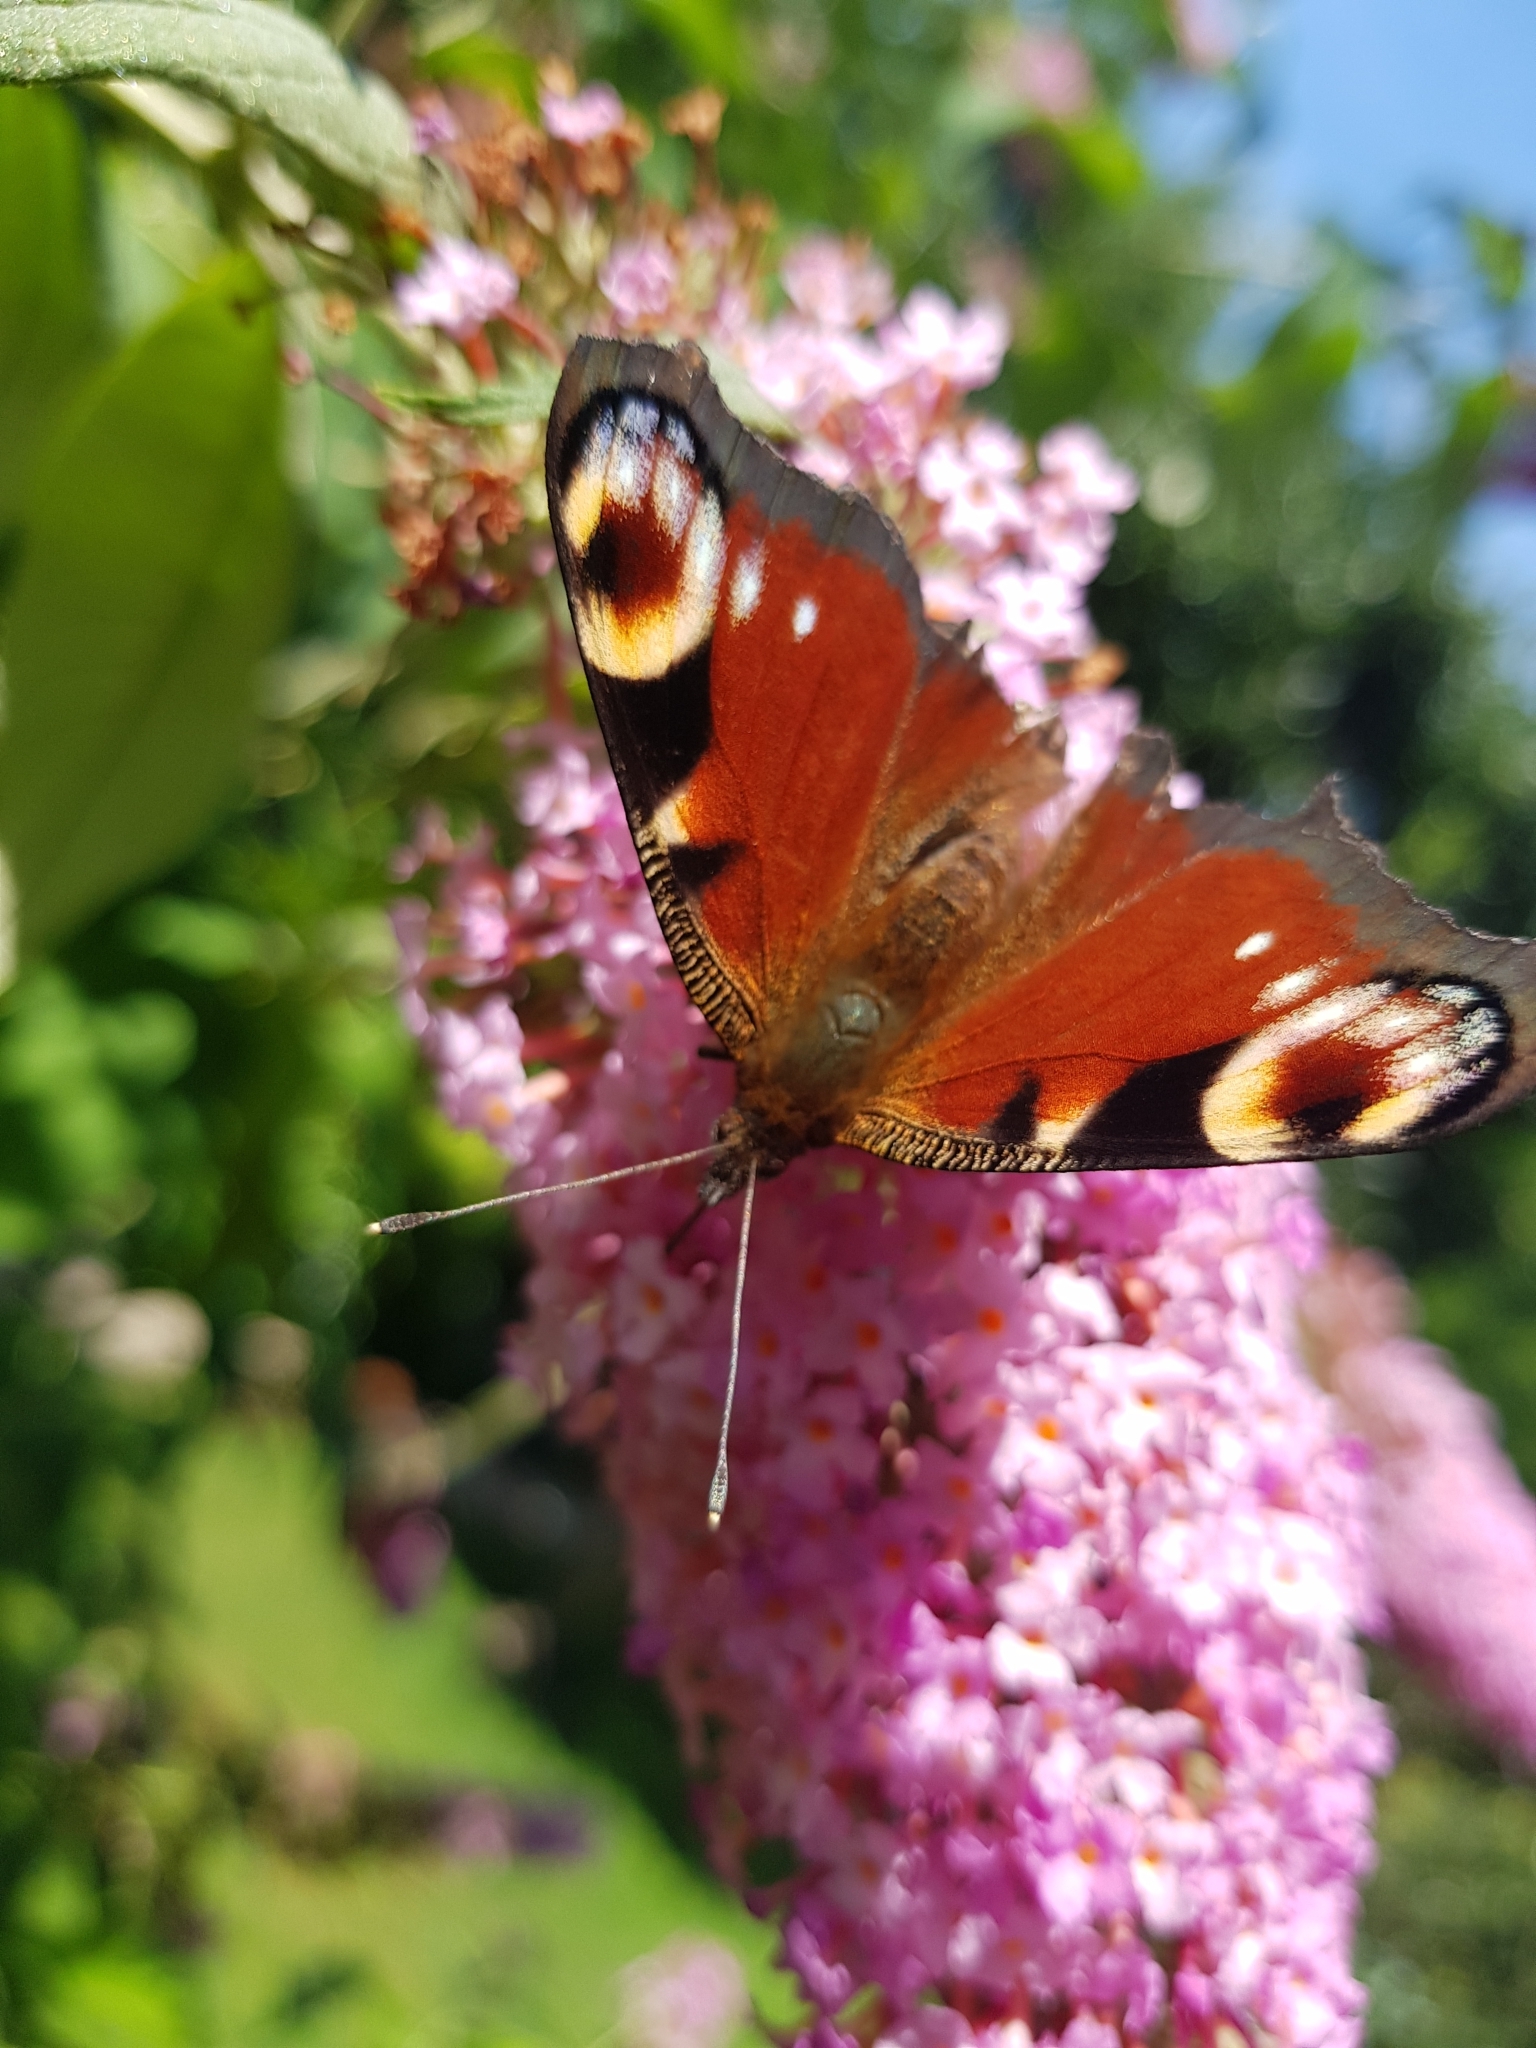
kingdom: Animalia
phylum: Arthropoda
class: Insecta
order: Lepidoptera
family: Nymphalidae
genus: Aglais
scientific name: Aglais io
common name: Peacock
